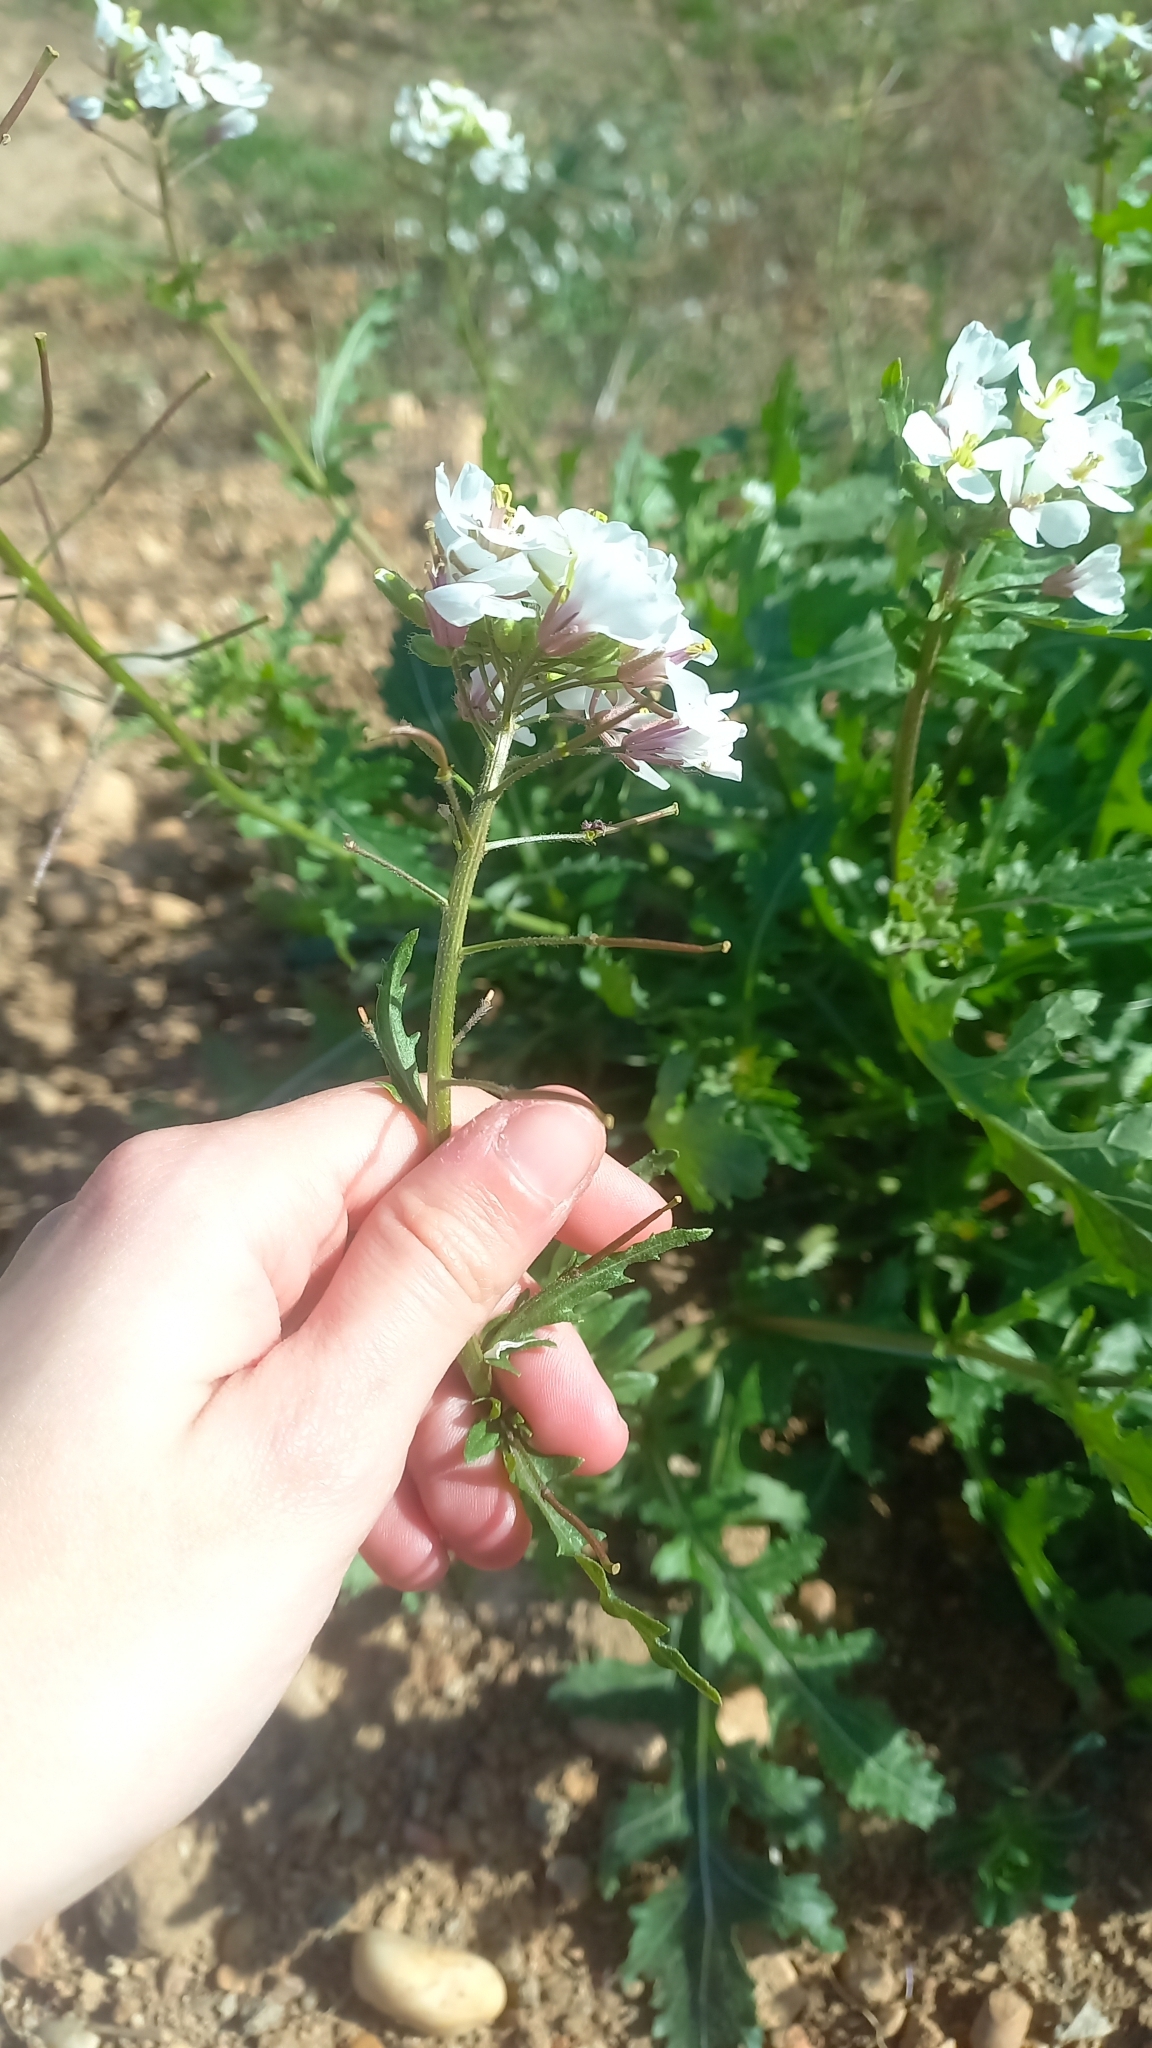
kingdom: Plantae
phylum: Tracheophyta
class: Magnoliopsida
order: Brassicales
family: Brassicaceae
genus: Diplotaxis
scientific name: Diplotaxis erucoides
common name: White rocket
